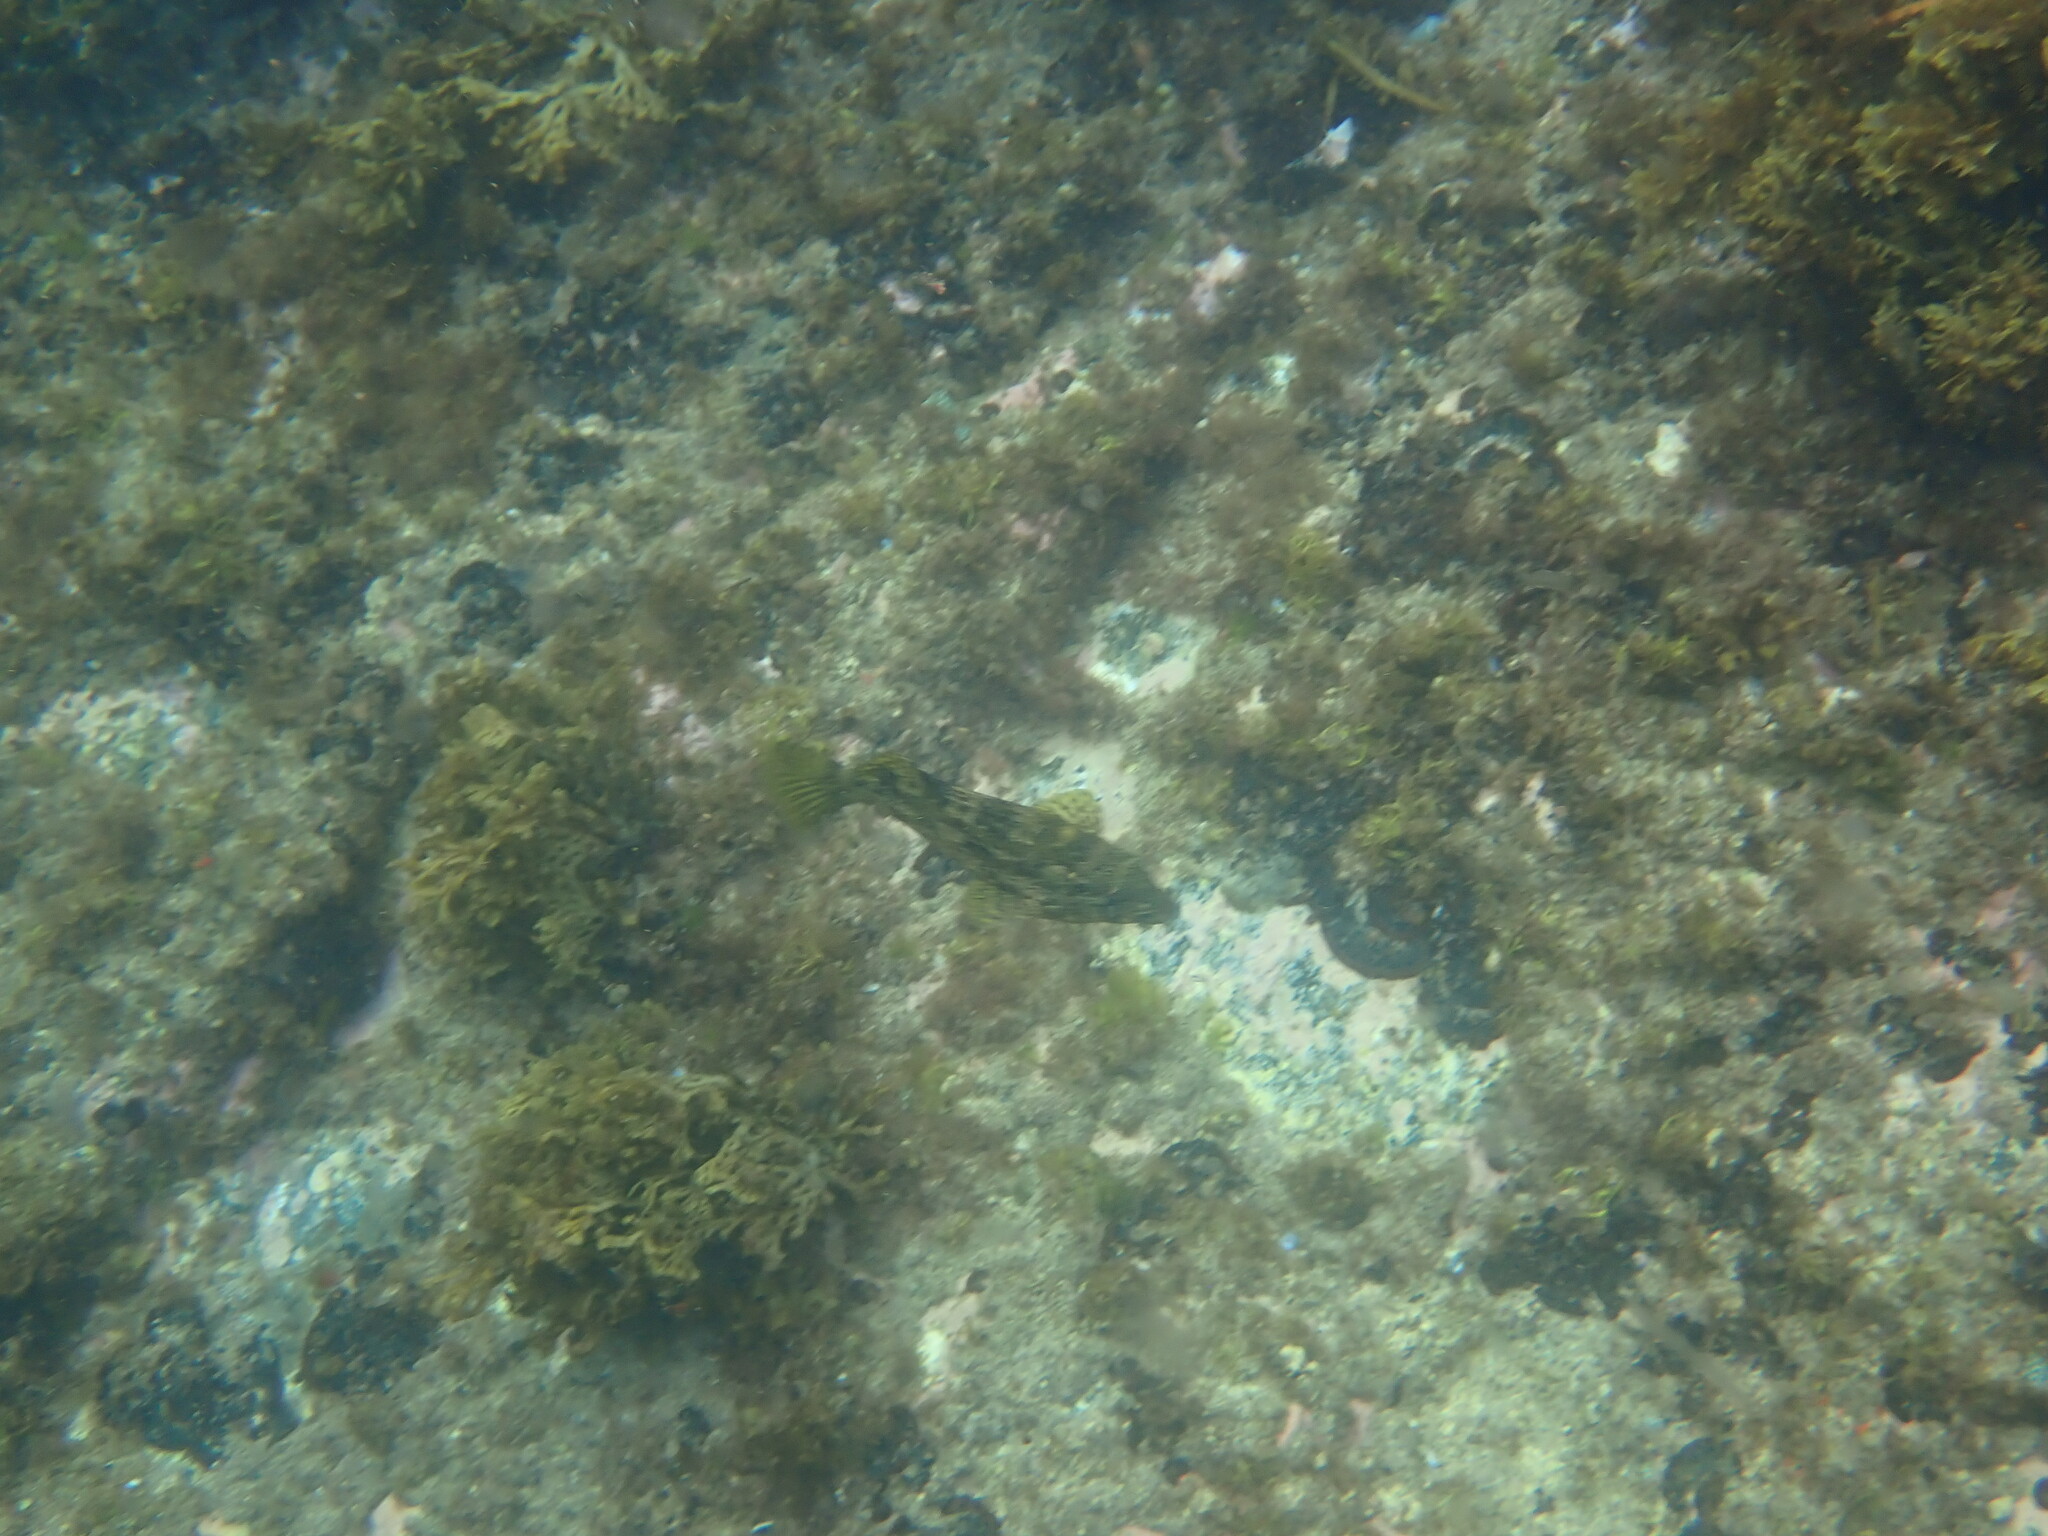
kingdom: Animalia
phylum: Chordata
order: Perciformes
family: Chironemidae
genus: Chironemus
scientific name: Chironemus marmoratus
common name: Kelpfish
